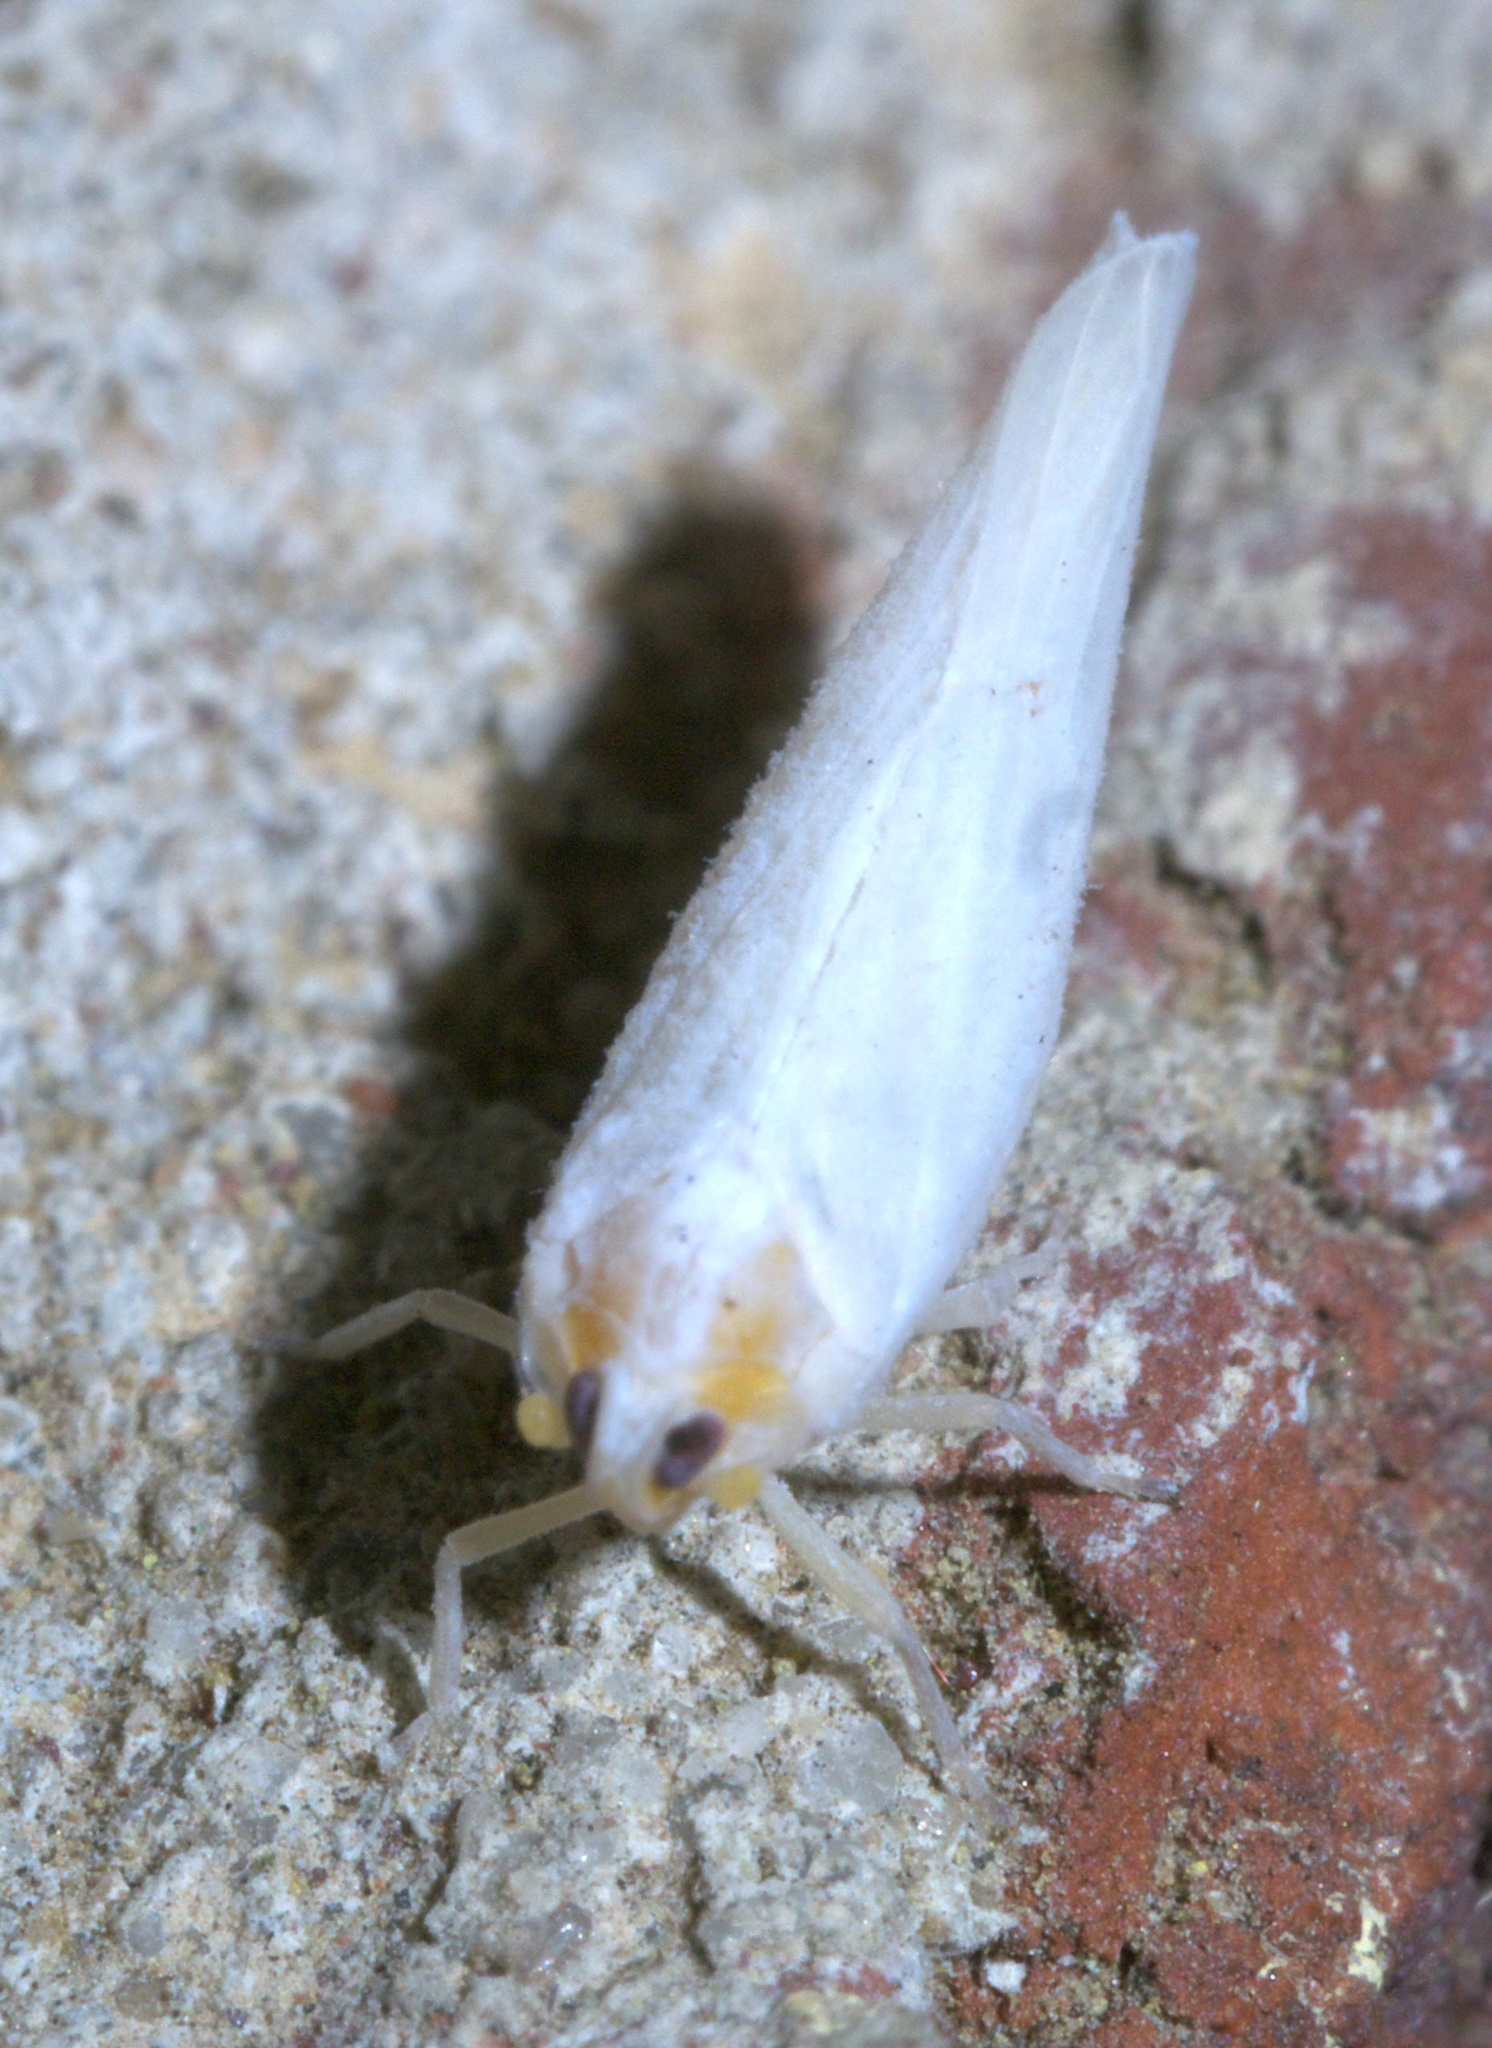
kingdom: Animalia
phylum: Arthropoda
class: Insecta
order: Hemiptera
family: Derbidae
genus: Neocenchrea
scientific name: Neocenchrea heidemanni
